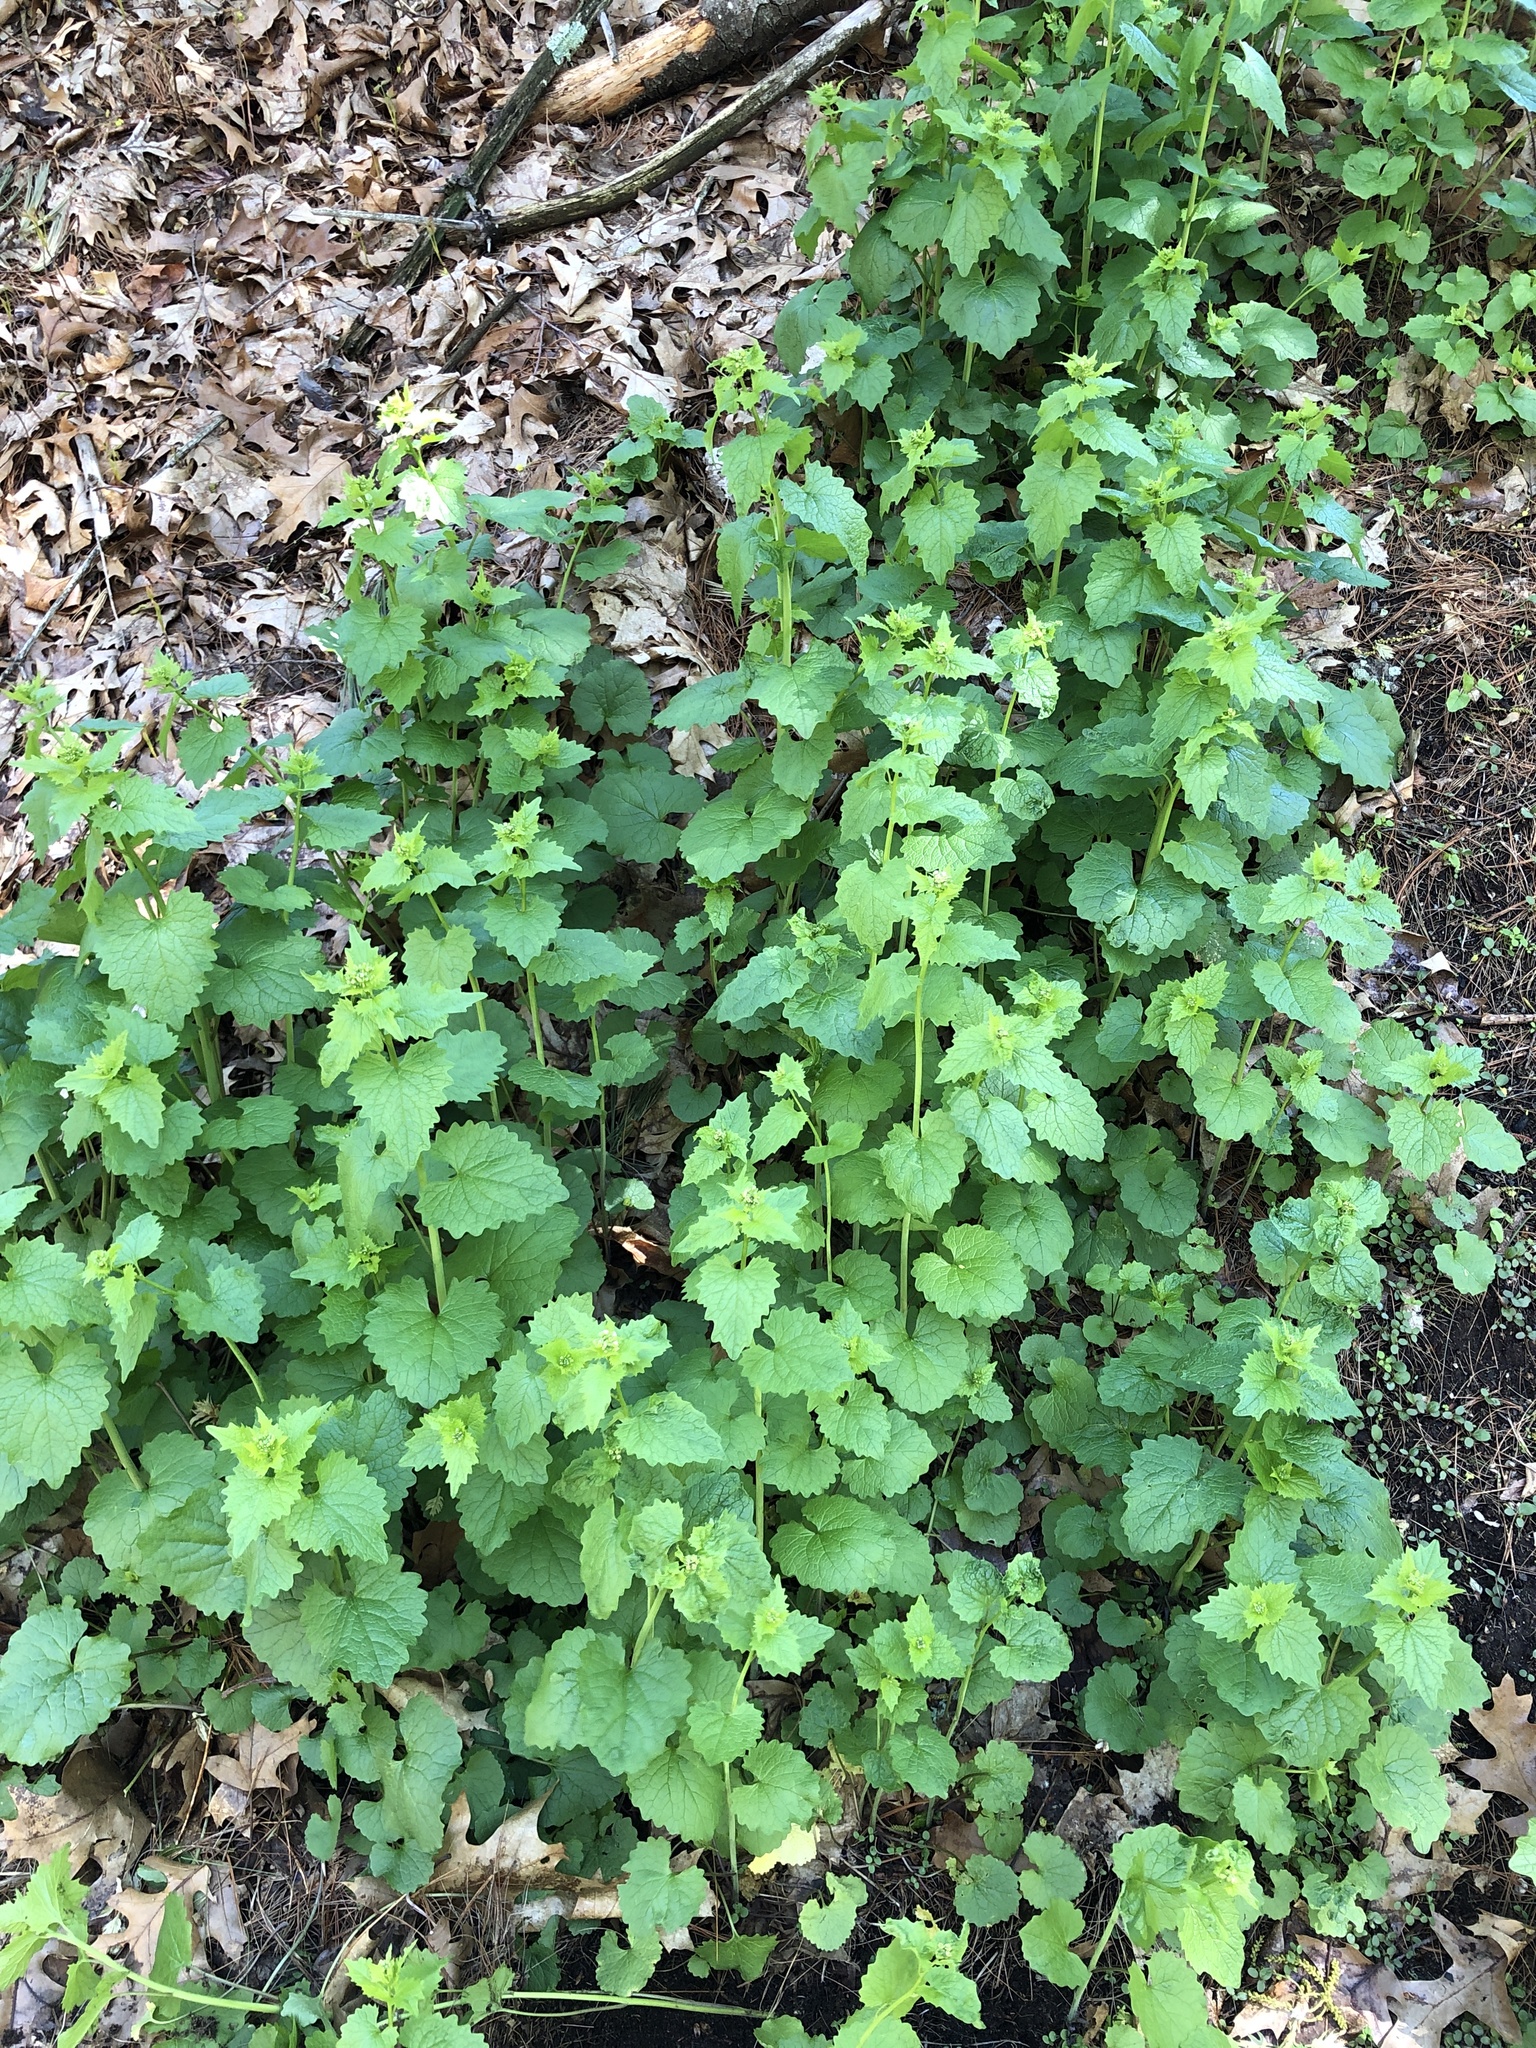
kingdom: Plantae
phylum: Tracheophyta
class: Magnoliopsida
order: Brassicales
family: Brassicaceae
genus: Alliaria
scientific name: Alliaria petiolata
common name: Garlic mustard
